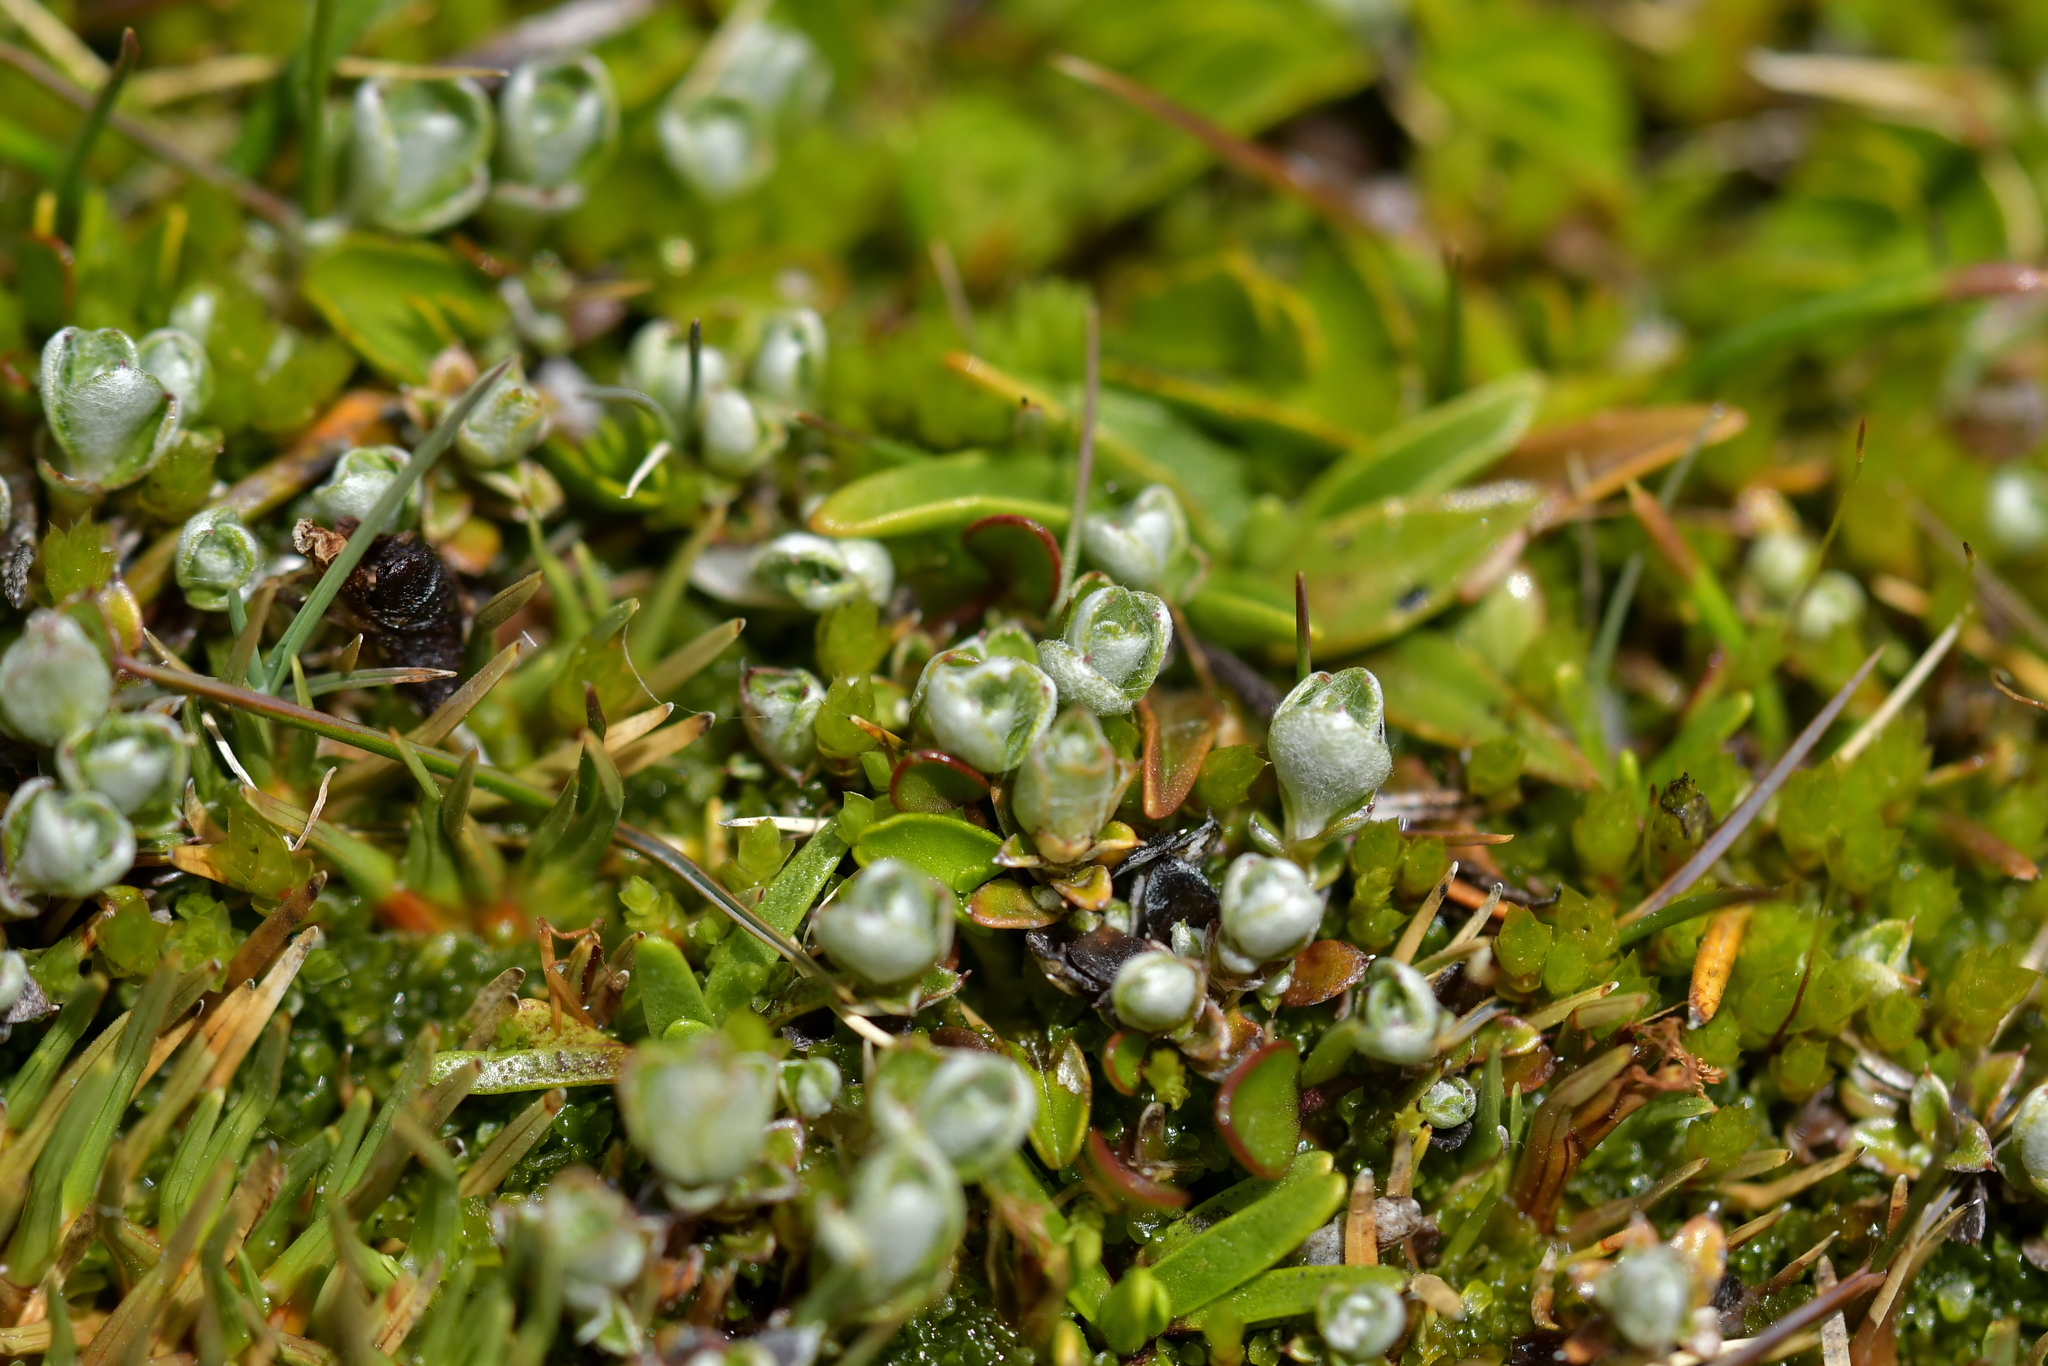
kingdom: Plantae
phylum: Tracheophyta
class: Magnoliopsida
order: Asterales
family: Asteraceae
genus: Anaphalioides
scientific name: Anaphalioides bellidioides
